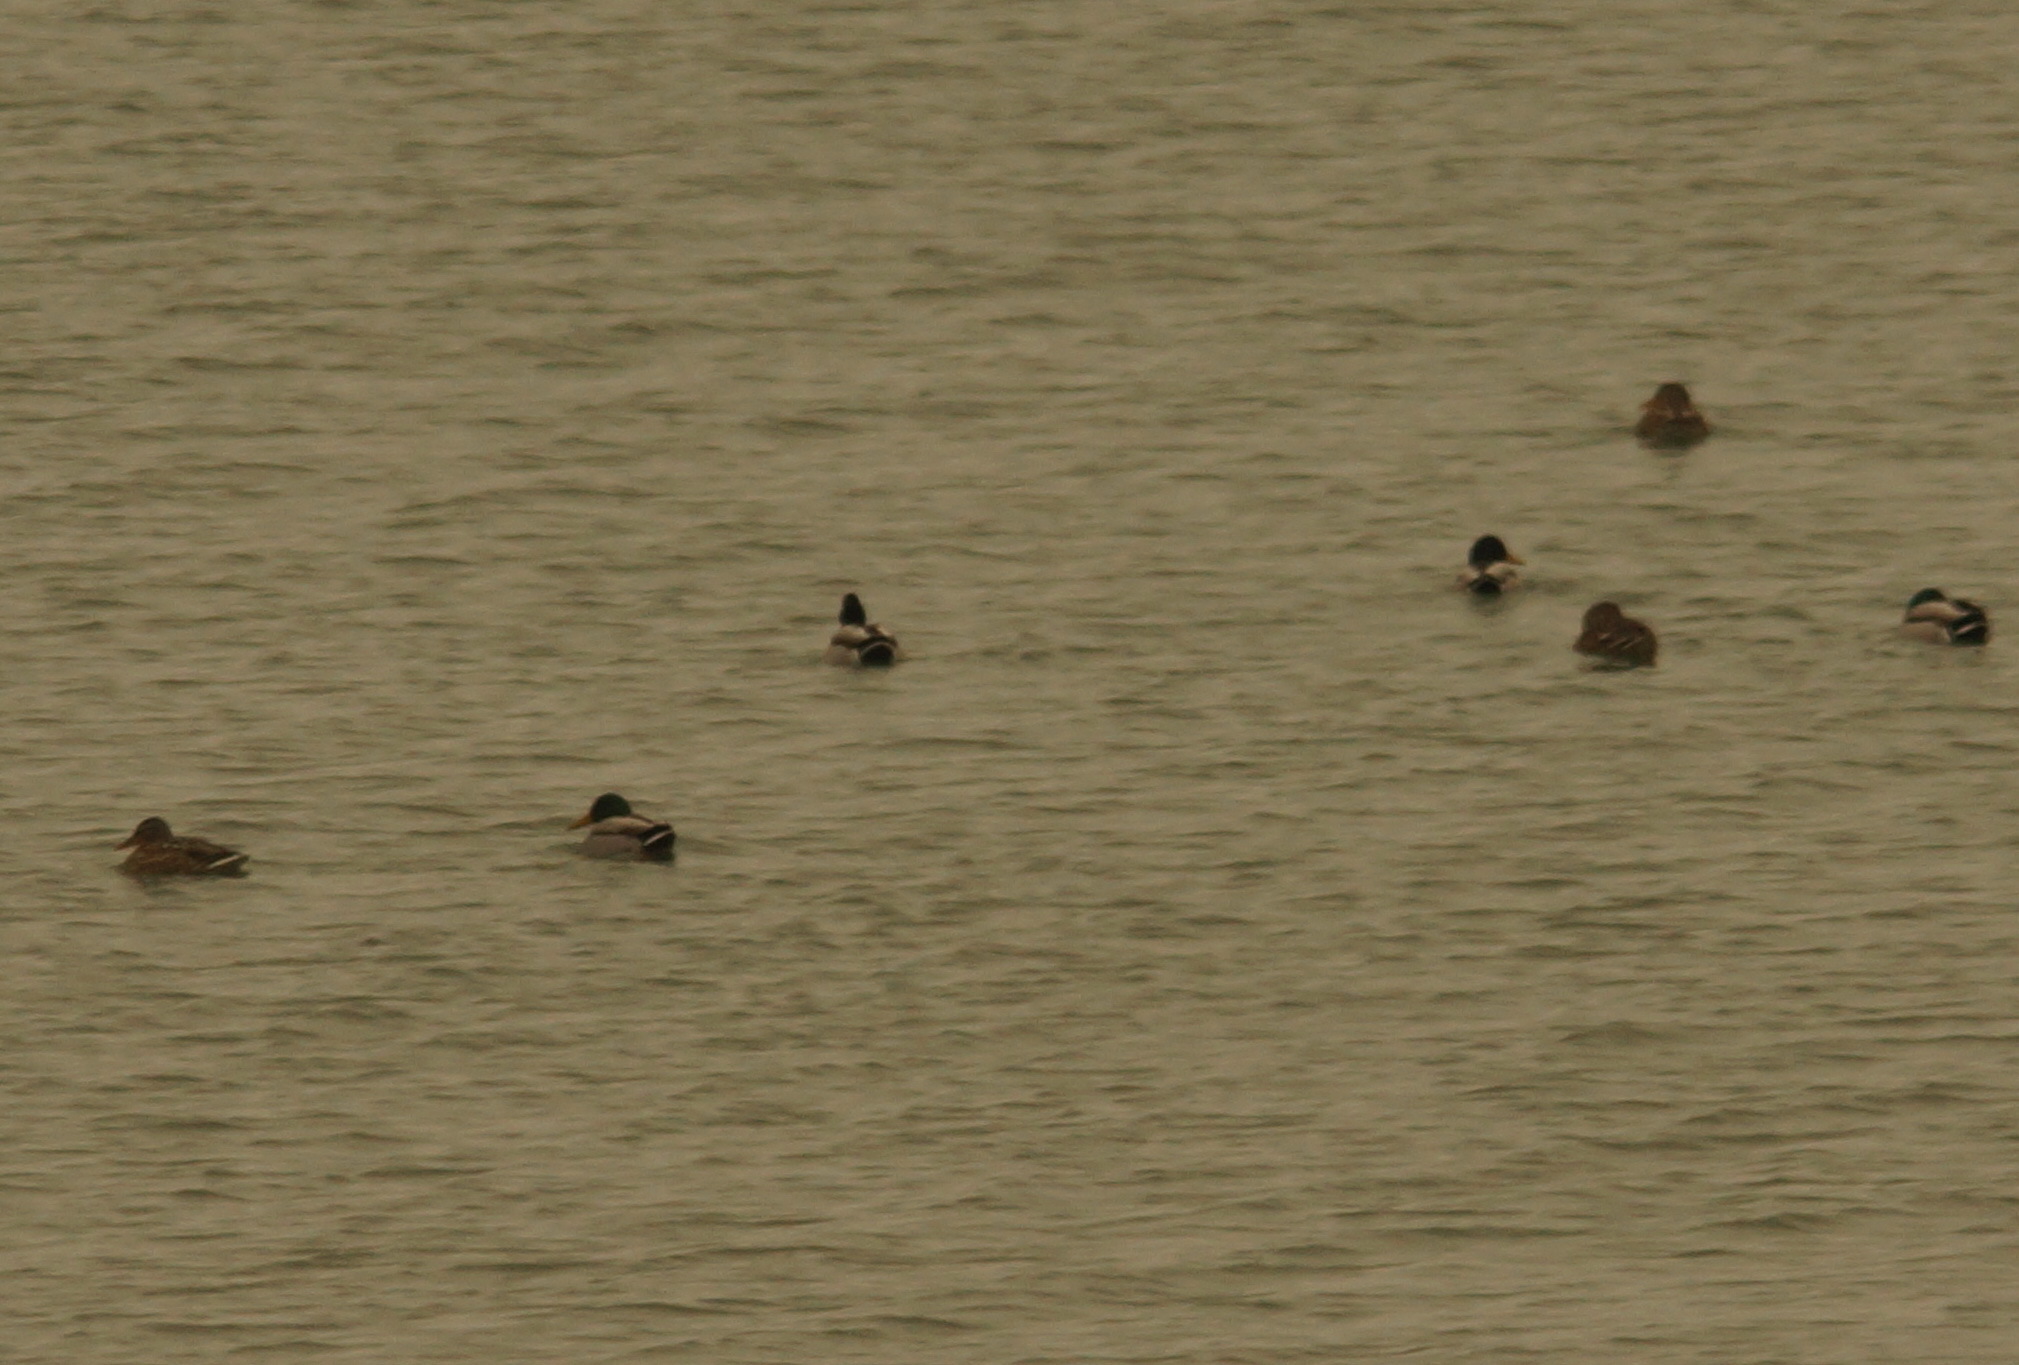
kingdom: Animalia
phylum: Chordata
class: Aves
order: Anseriformes
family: Anatidae
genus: Anas
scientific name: Anas platyrhynchos
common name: Mallard
